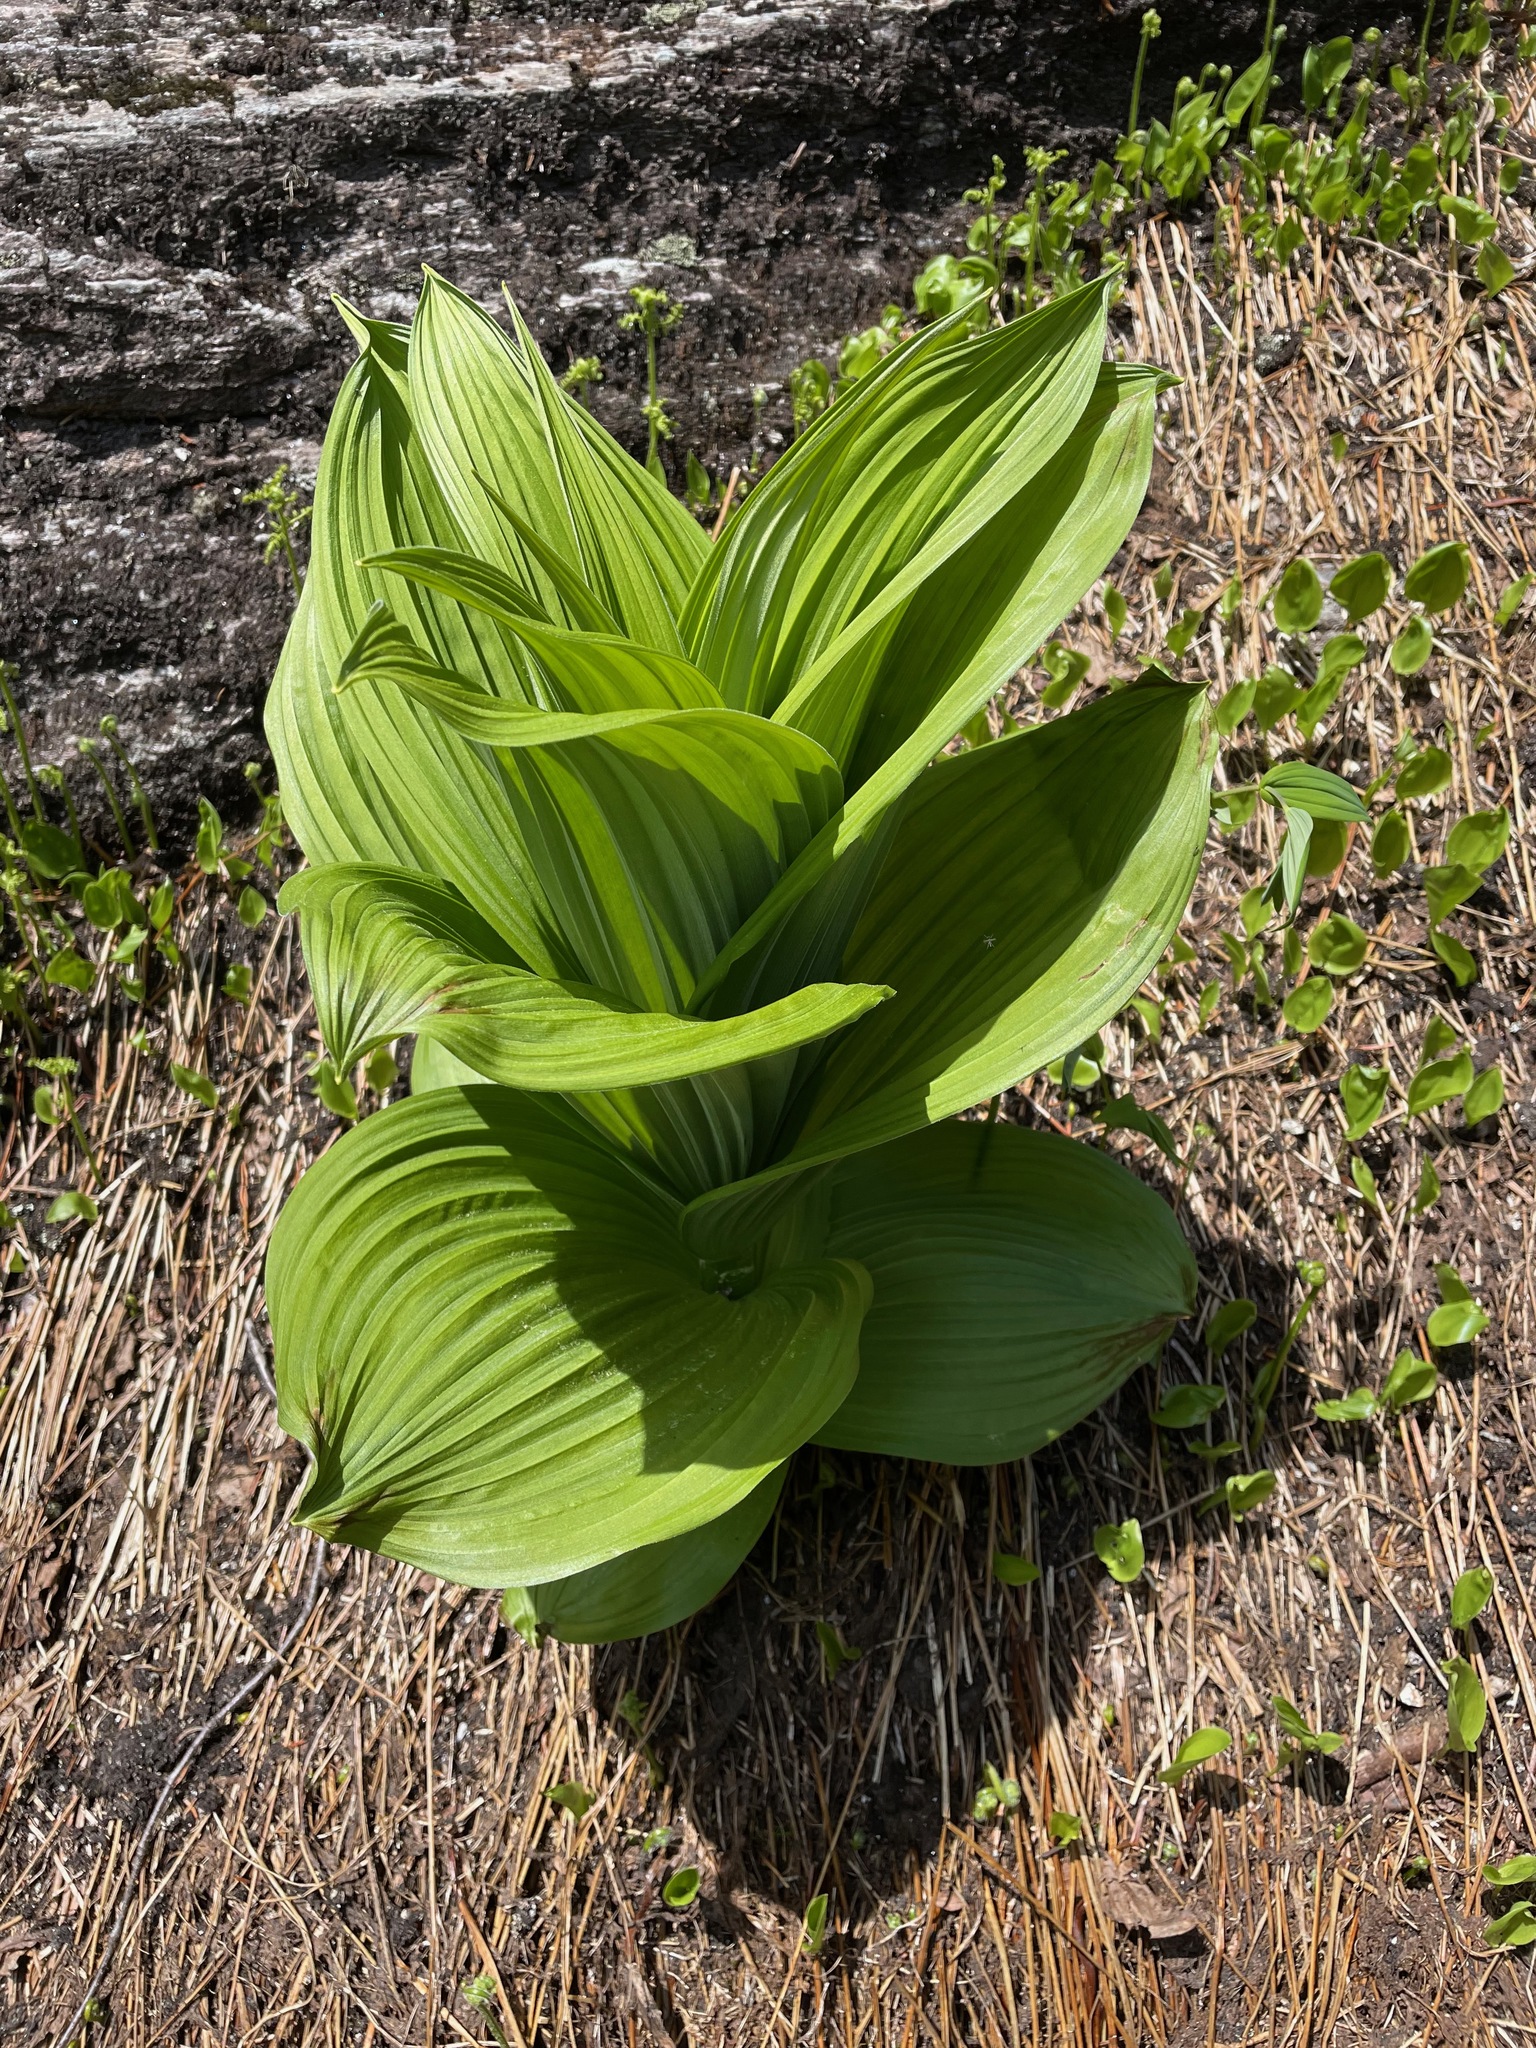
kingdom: Plantae
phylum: Tracheophyta
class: Liliopsida
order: Liliales
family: Melanthiaceae
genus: Veratrum
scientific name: Veratrum viride
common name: American false hellebore
